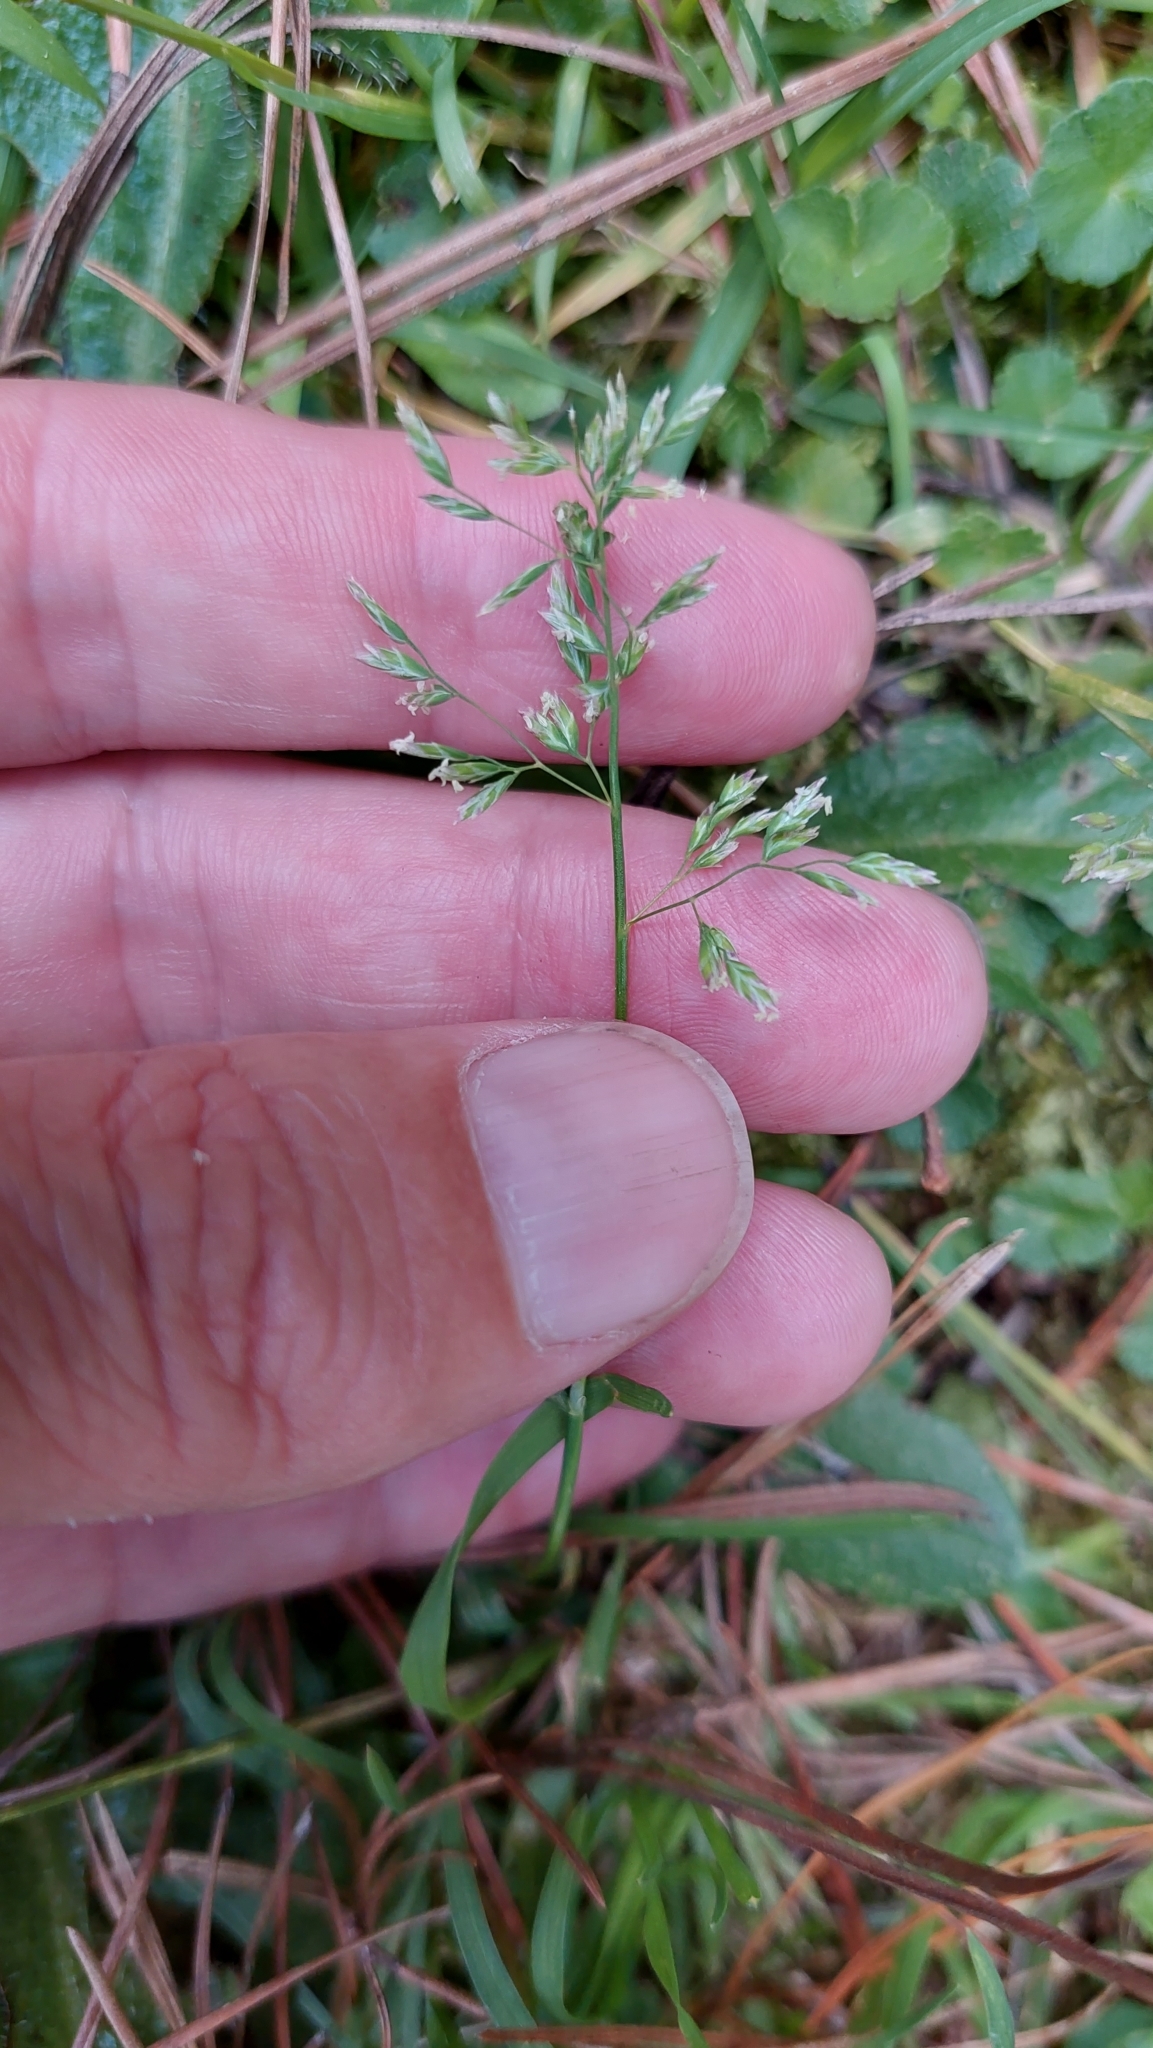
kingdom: Plantae
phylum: Tracheophyta
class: Liliopsida
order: Poales
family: Poaceae
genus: Poa
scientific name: Poa annua
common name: Annual bluegrass
